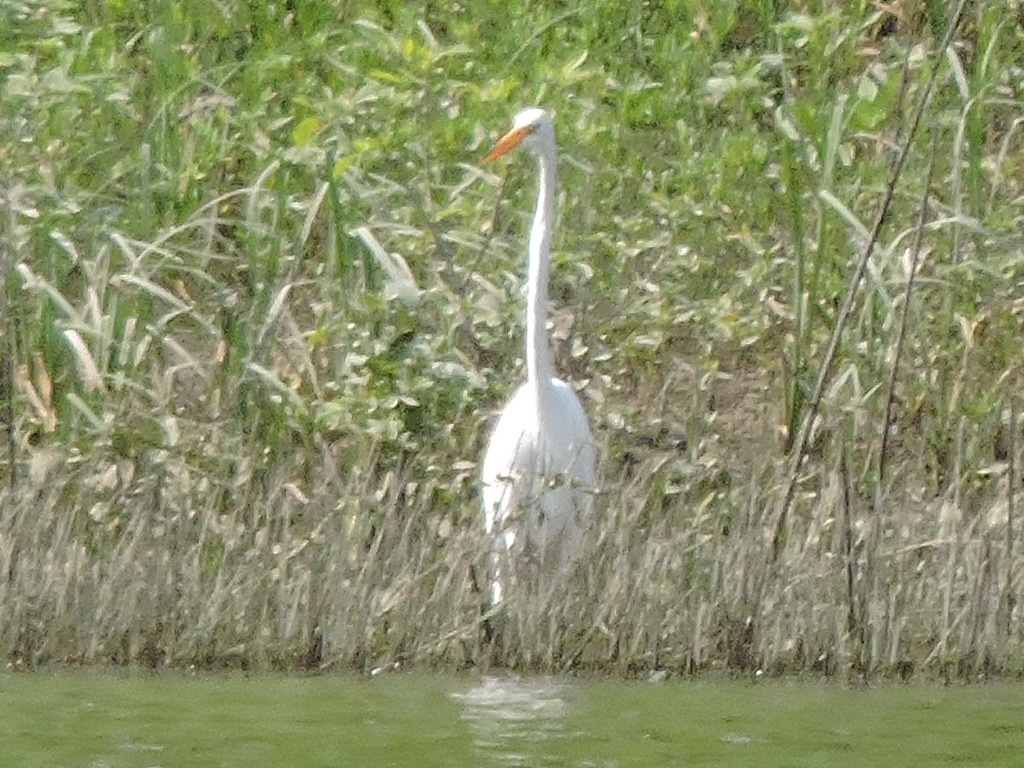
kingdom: Animalia
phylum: Chordata
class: Aves
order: Pelecaniformes
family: Ardeidae
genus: Ardea
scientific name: Ardea alba
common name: Great egret
